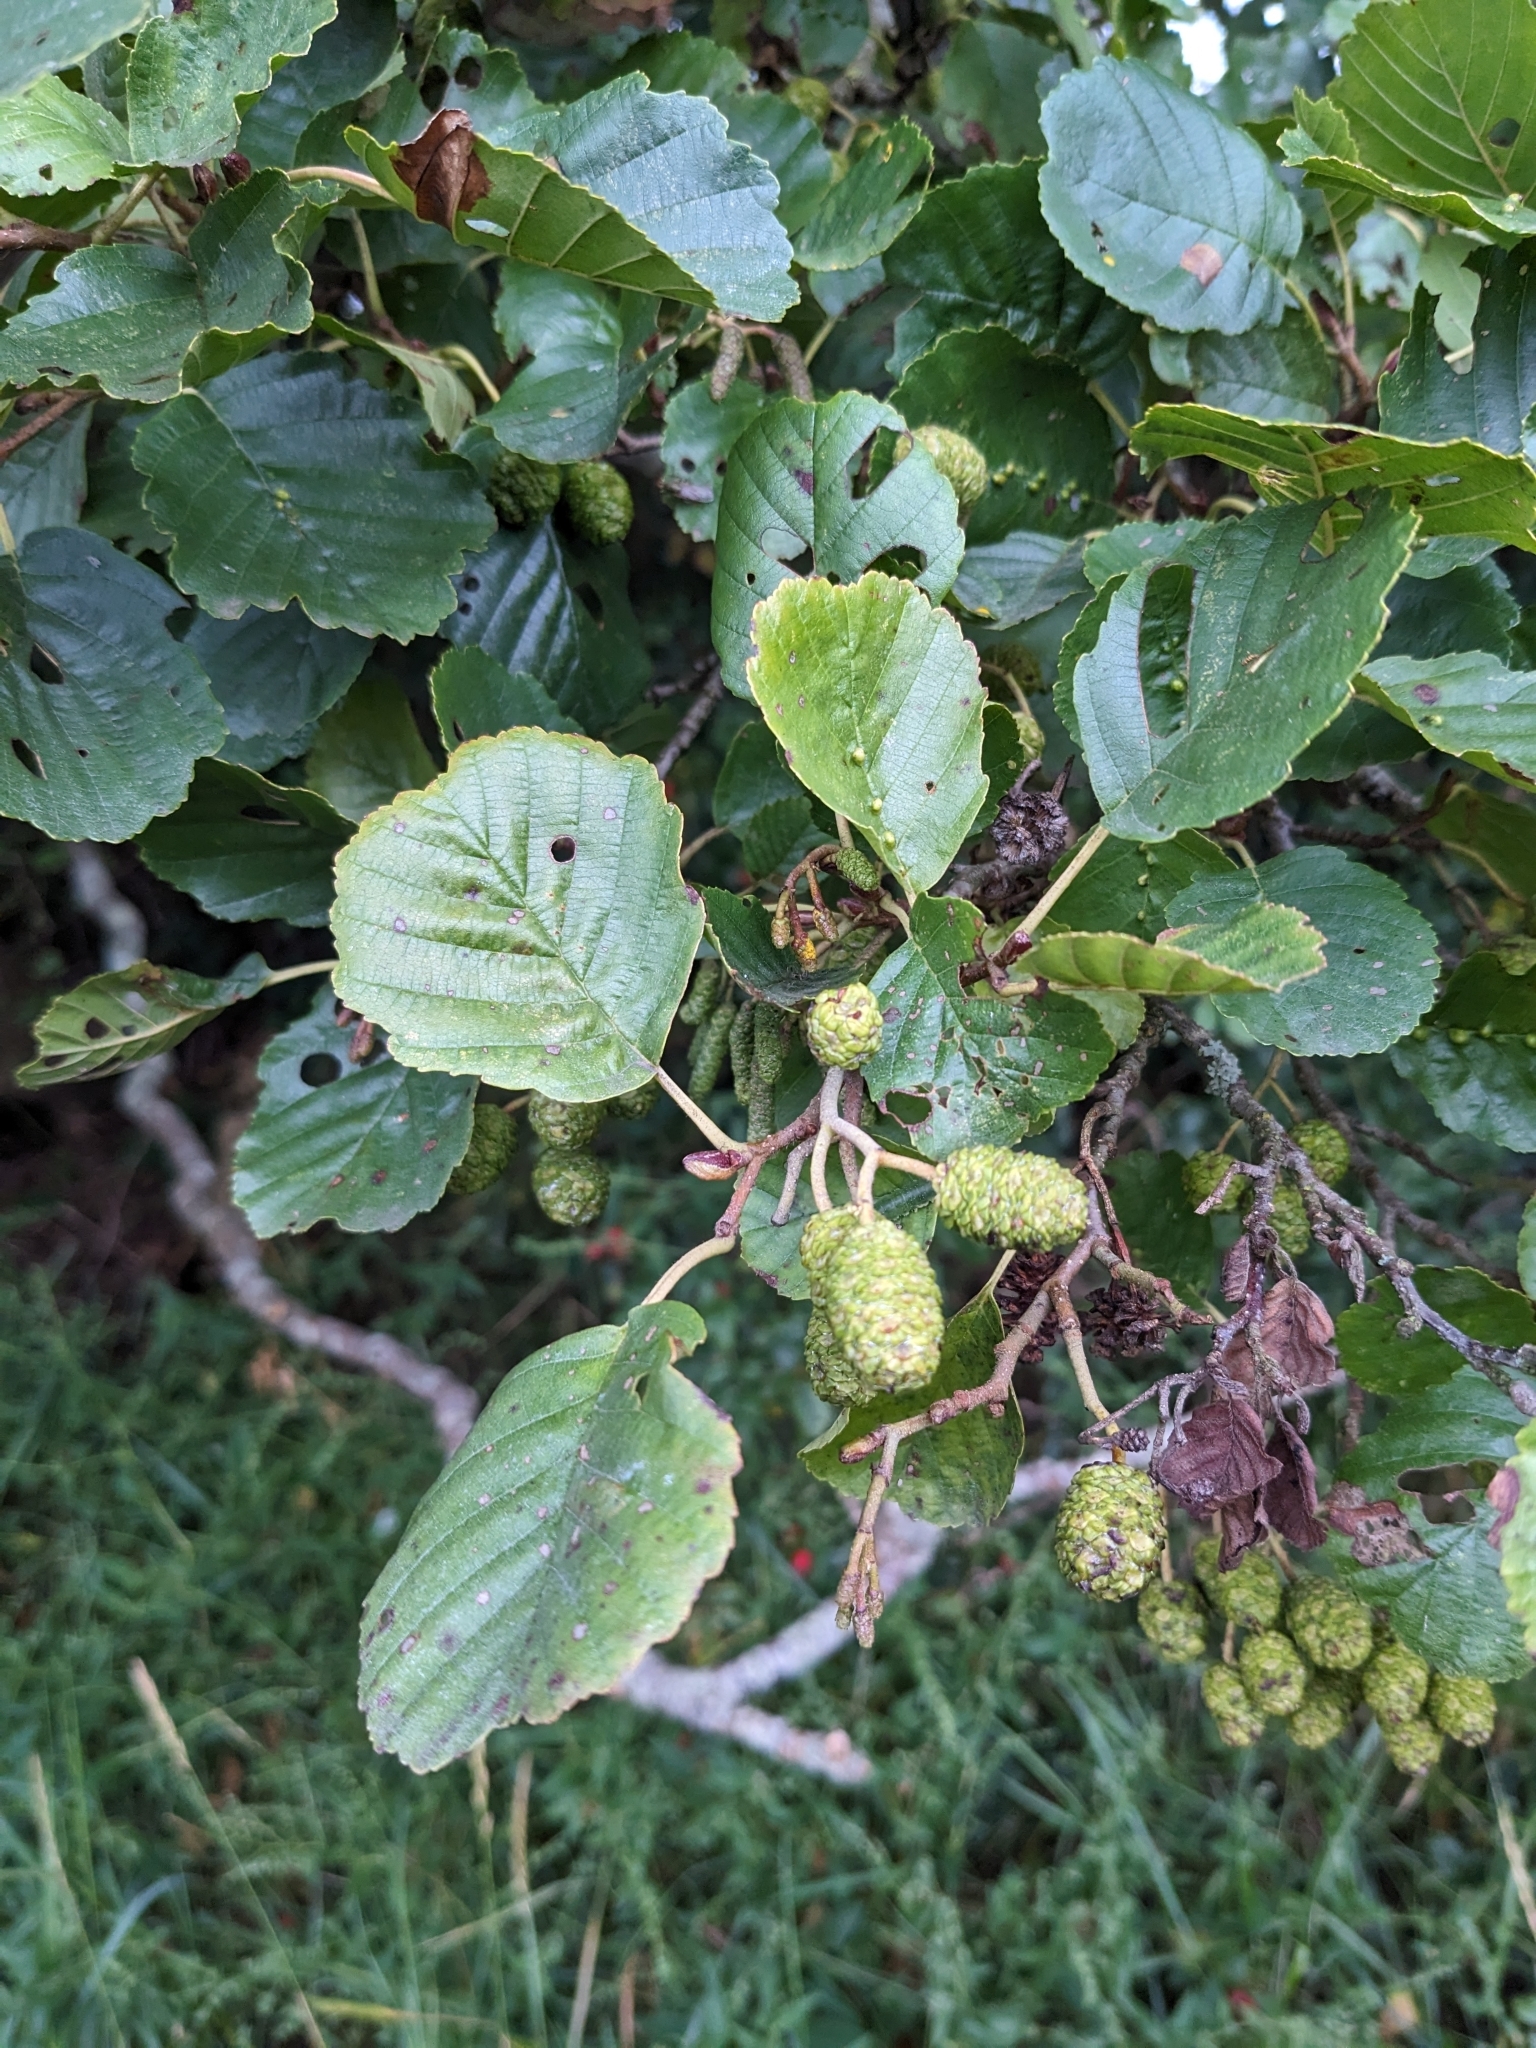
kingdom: Plantae
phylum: Tracheophyta
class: Magnoliopsida
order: Fagales
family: Betulaceae
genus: Alnus
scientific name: Alnus glutinosa
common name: Black alder
